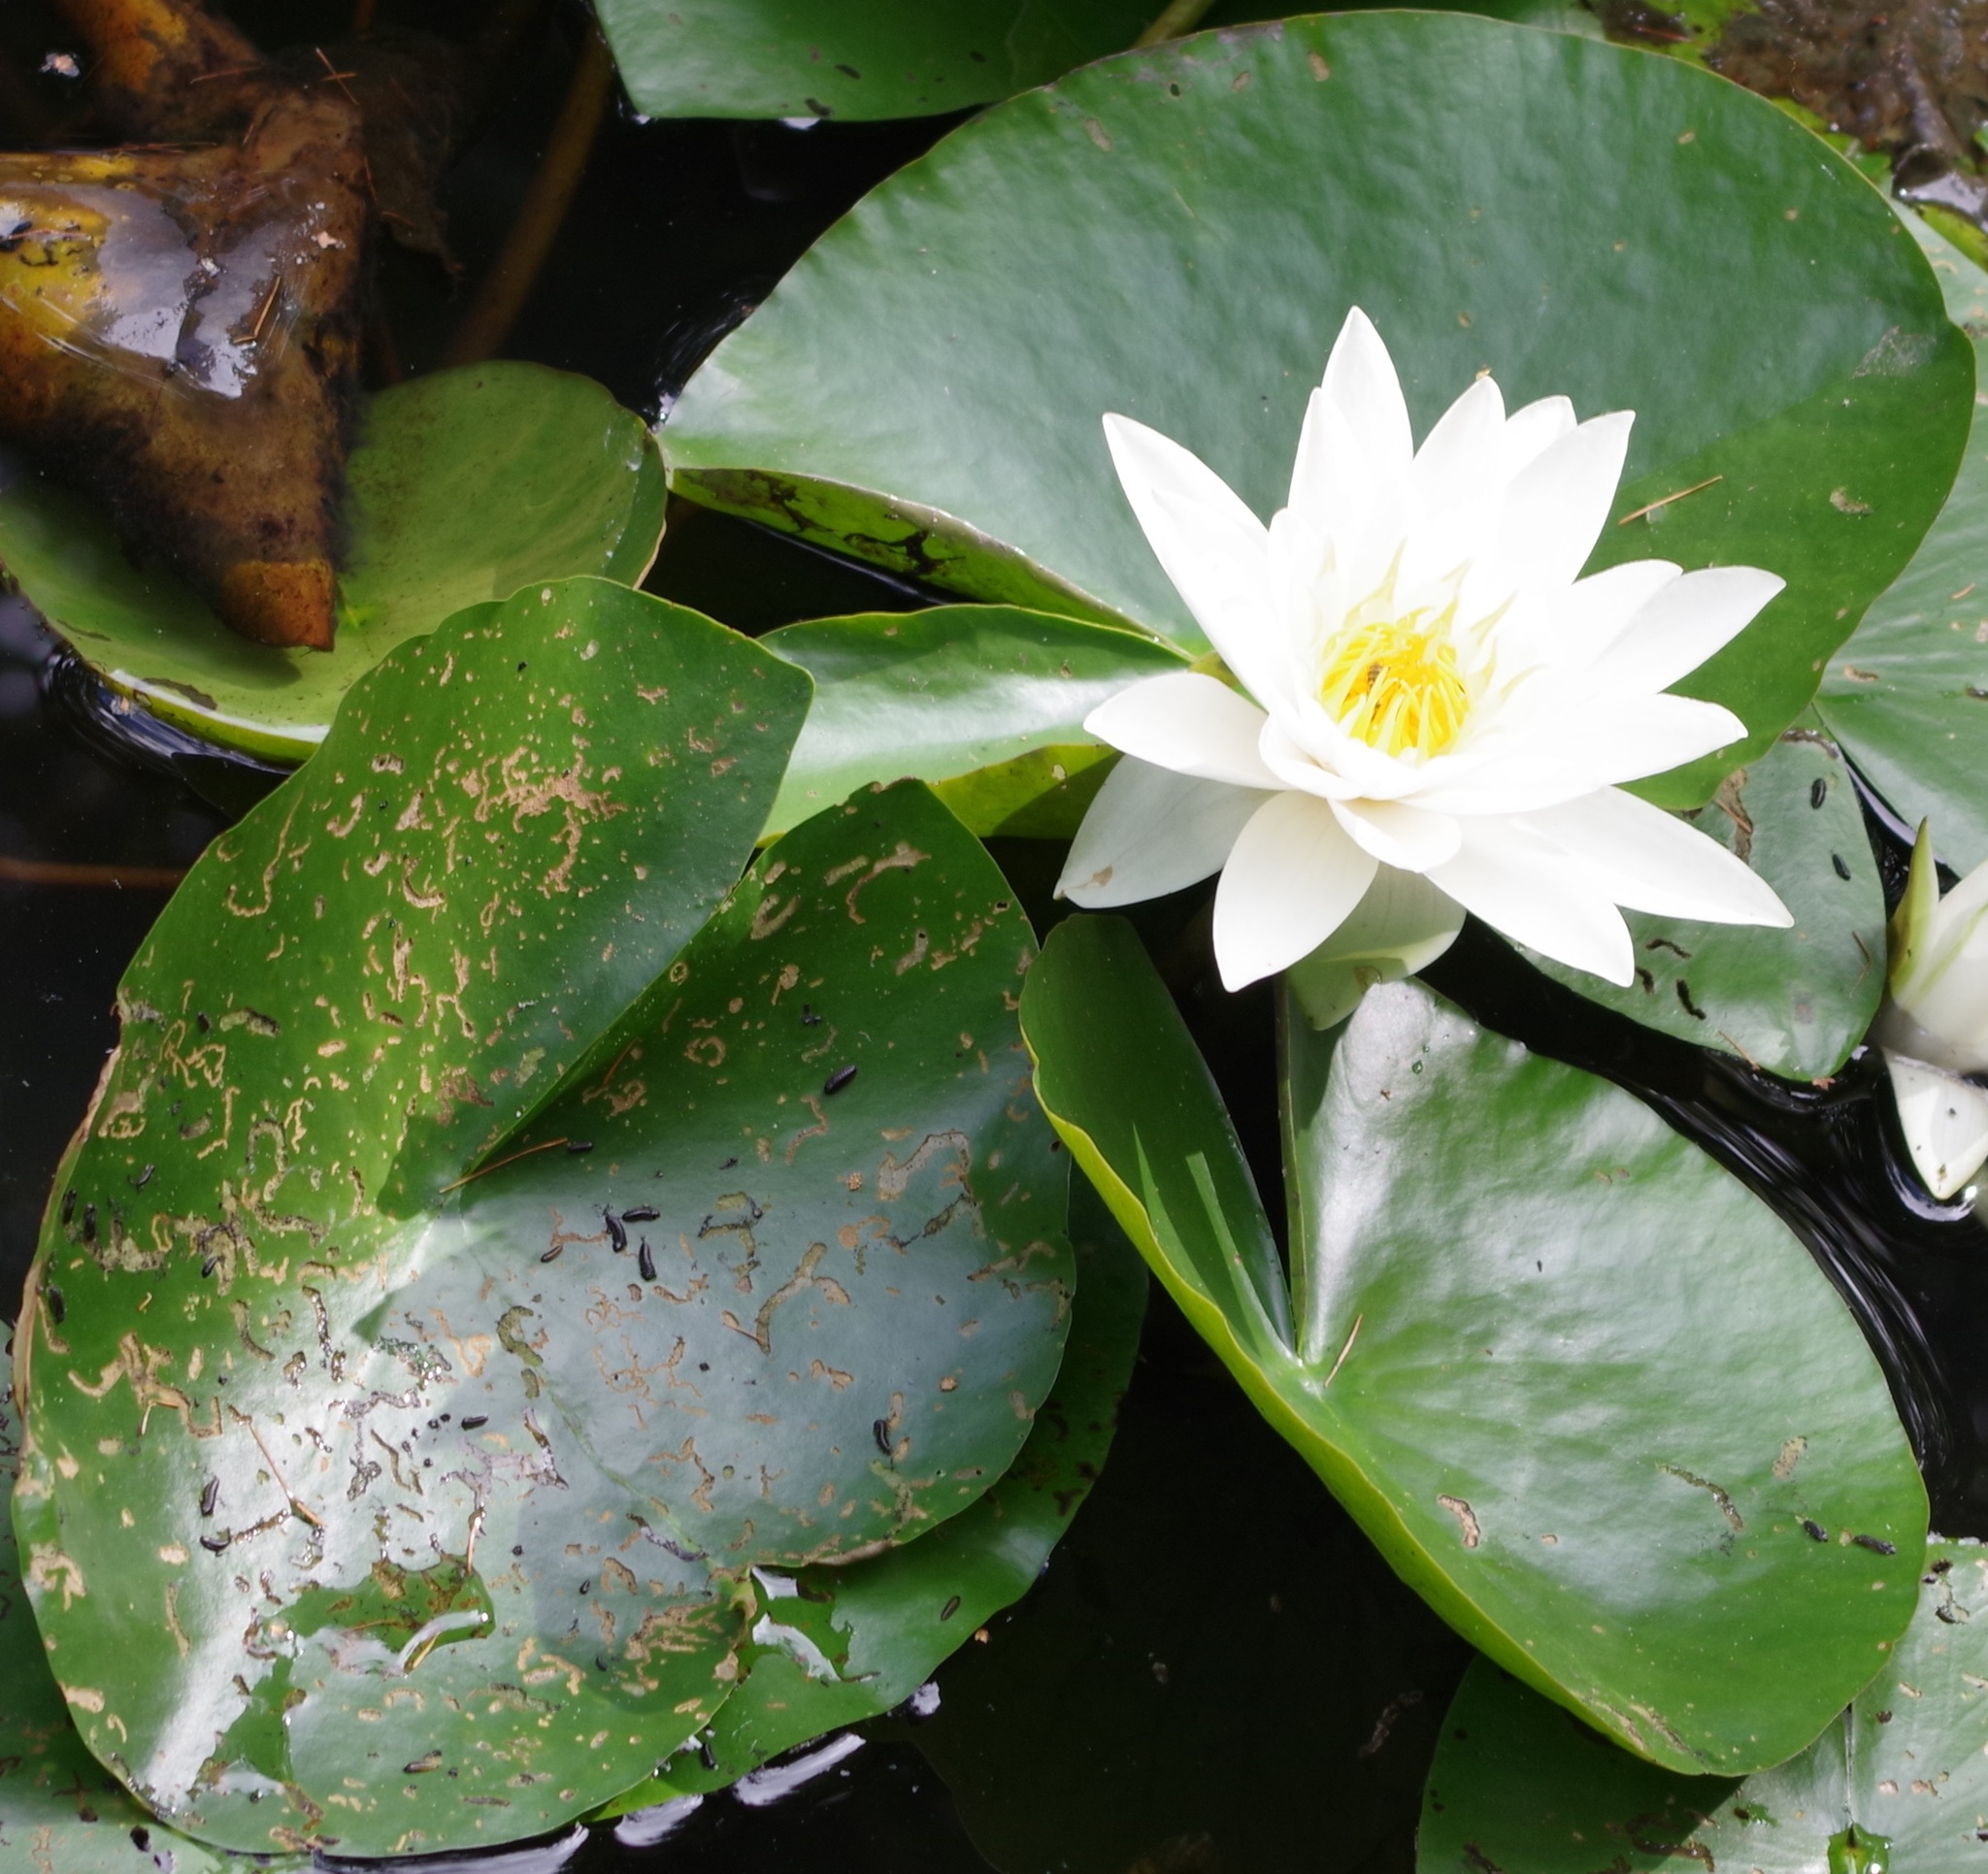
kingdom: Plantae
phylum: Tracheophyta
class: Magnoliopsida
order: Nymphaeales
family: Nymphaeaceae
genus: Nymphaea
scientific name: Nymphaea alba
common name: White water-lily
